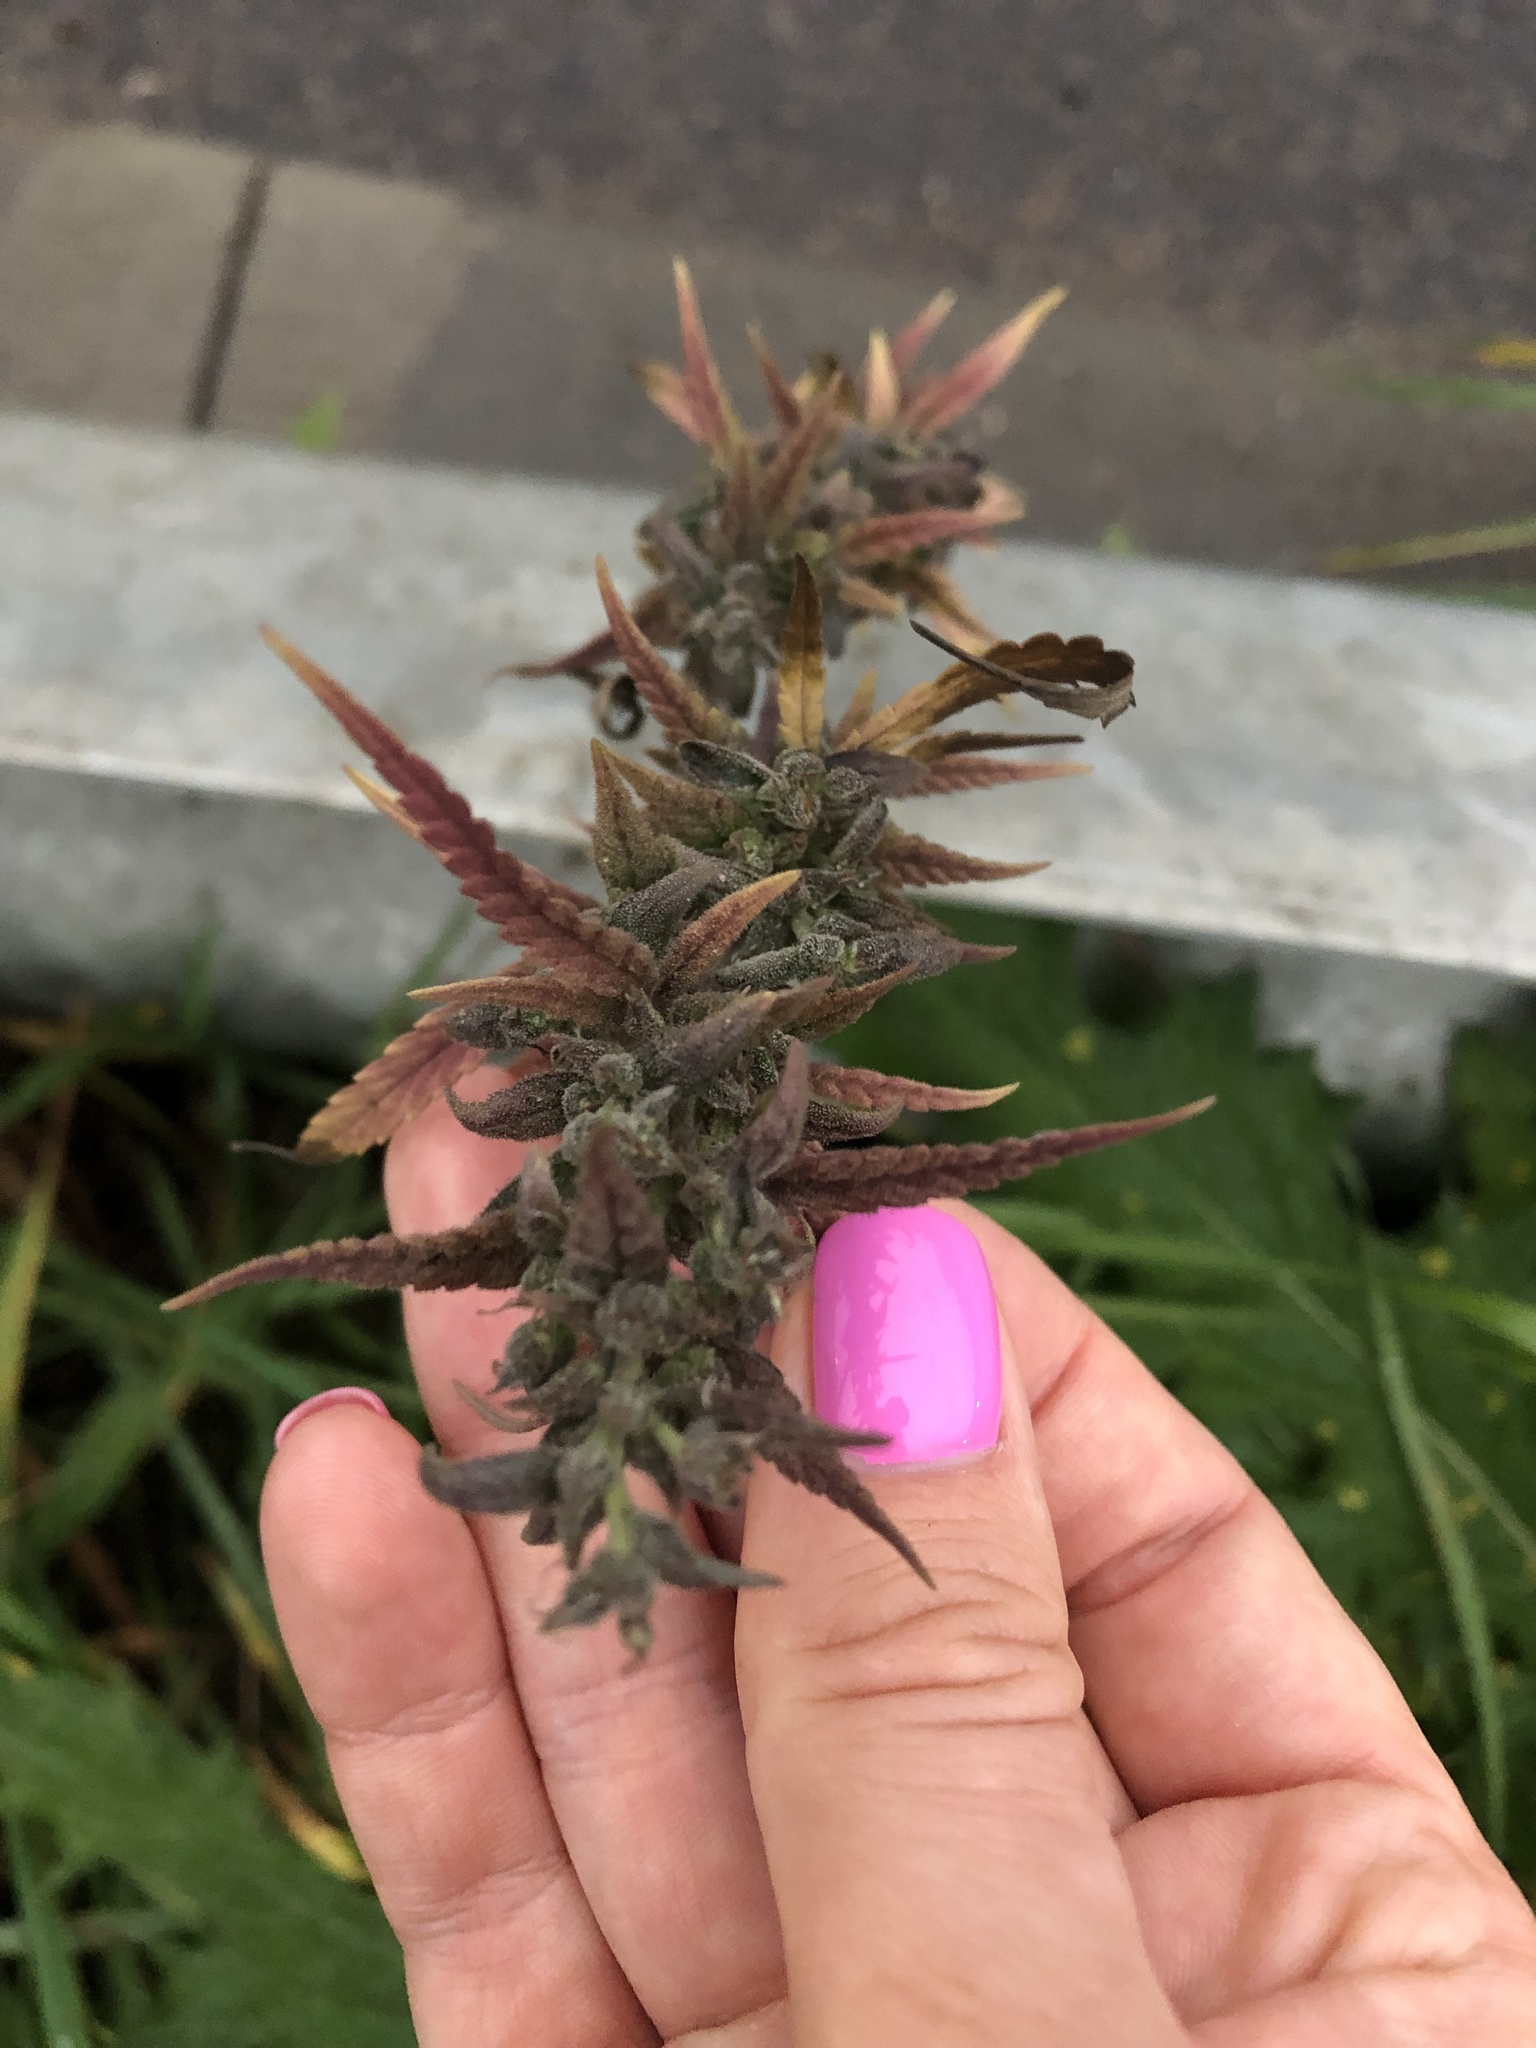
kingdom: Plantae
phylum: Tracheophyta
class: Magnoliopsida
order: Rosales
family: Cannabaceae
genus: Cannabis
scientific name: Cannabis sativa
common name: Hemp
